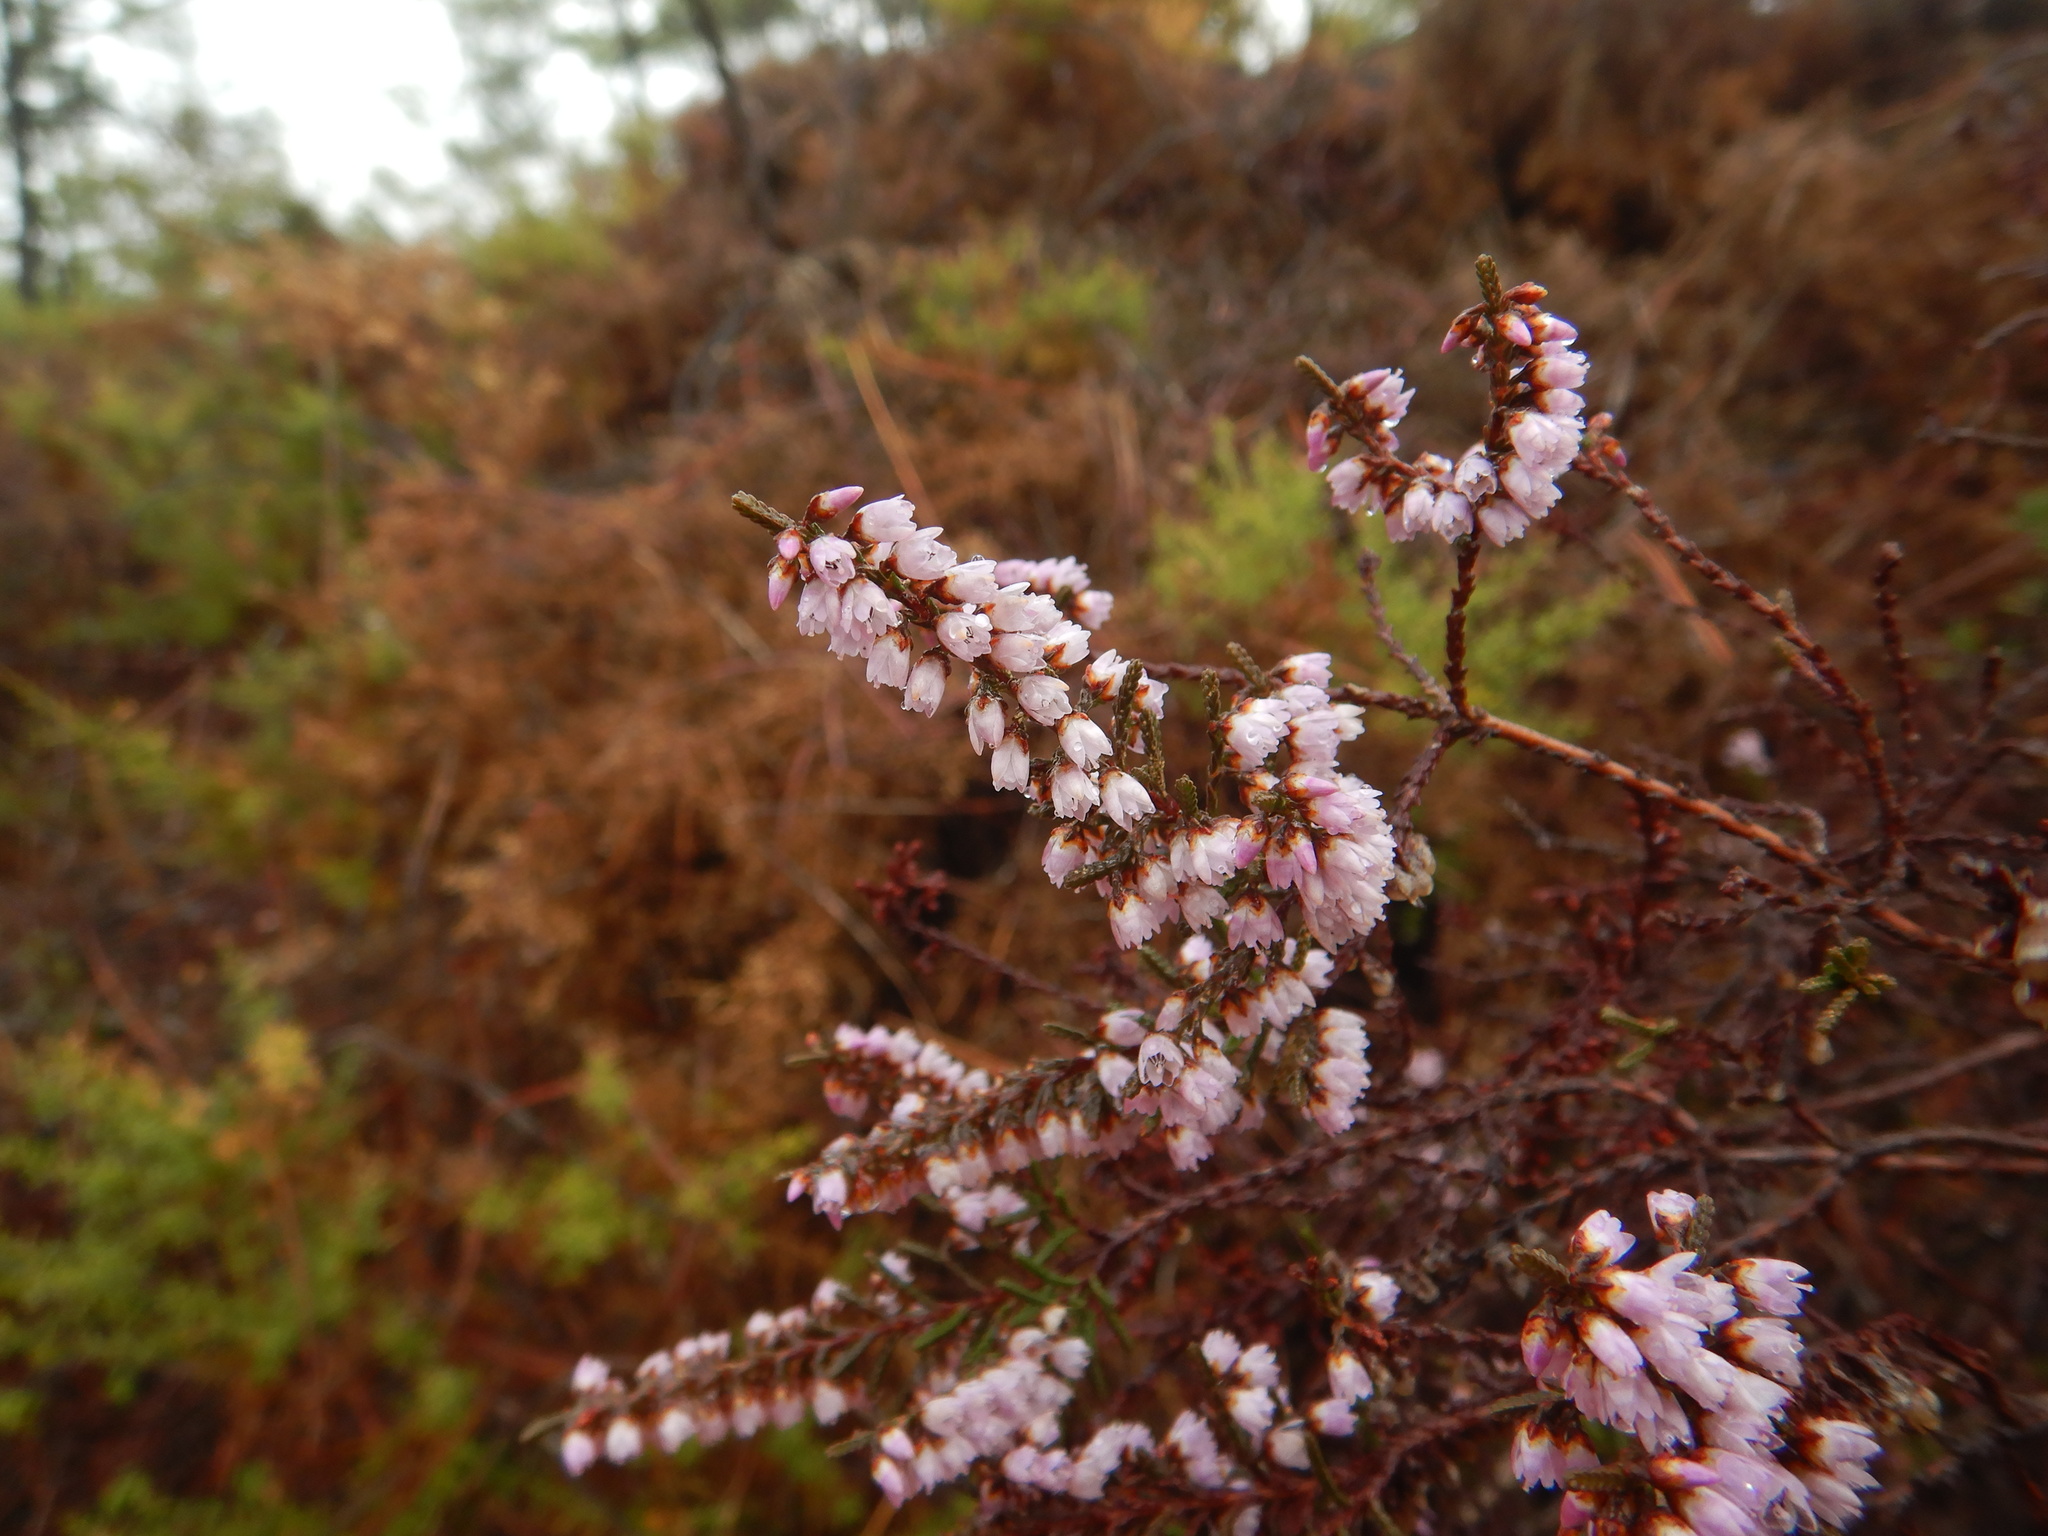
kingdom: Plantae
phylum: Tracheophyta
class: Magnoliopsida
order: Ericales
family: Ericaceae
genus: Calluna
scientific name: Calluna vulgaris
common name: Heather
